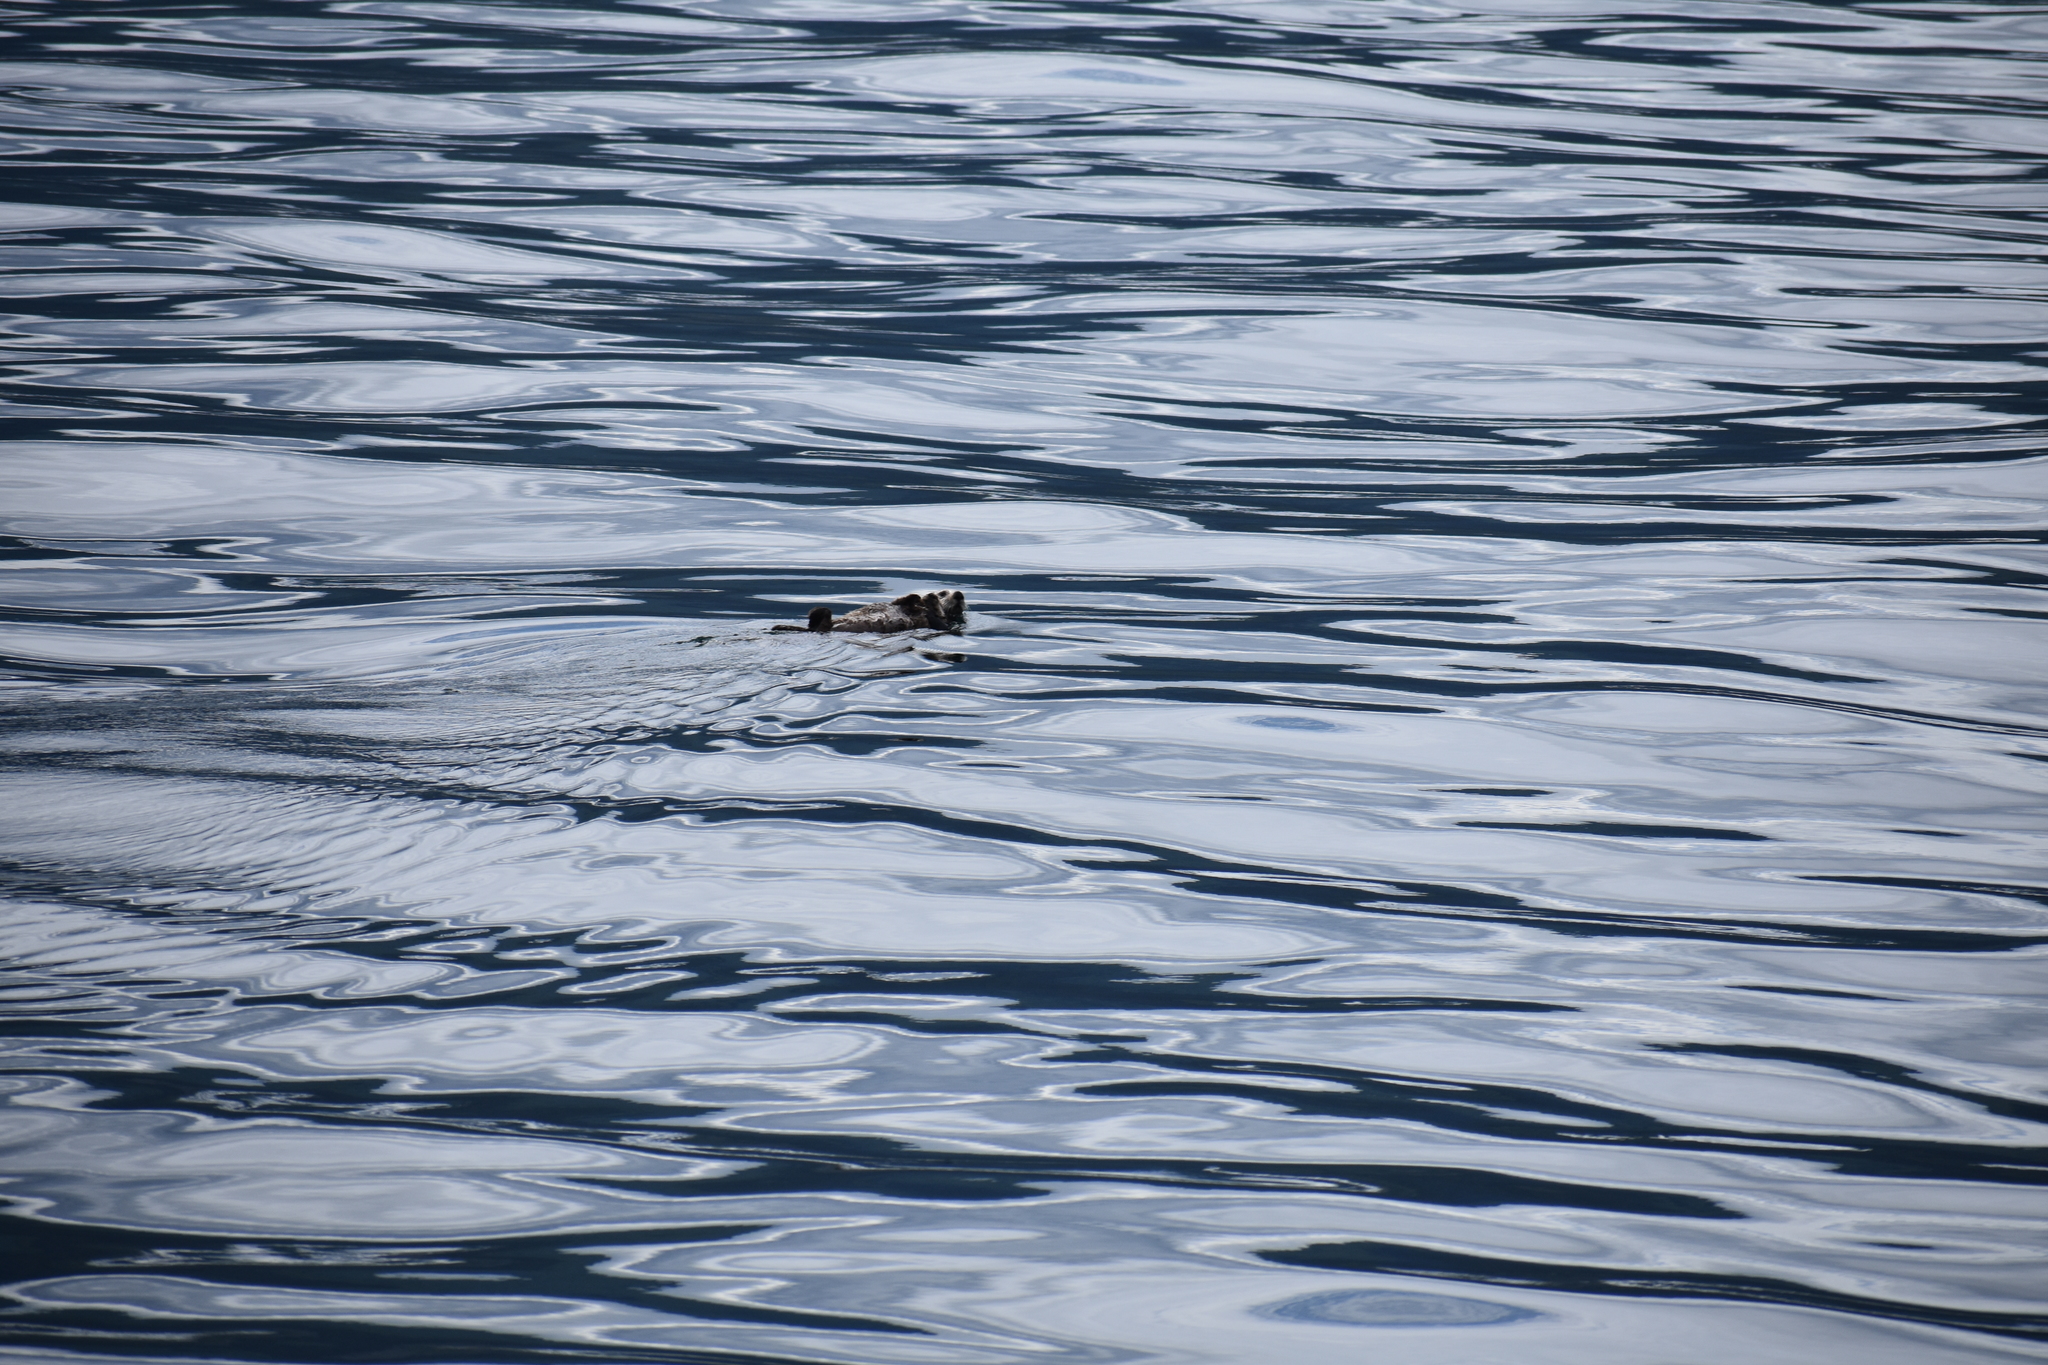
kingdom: Animalia
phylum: Chordata
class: Mammalia
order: Carnivora
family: Mustelidae
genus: Enhydra
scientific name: Enhydra lutris
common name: Sea otter
